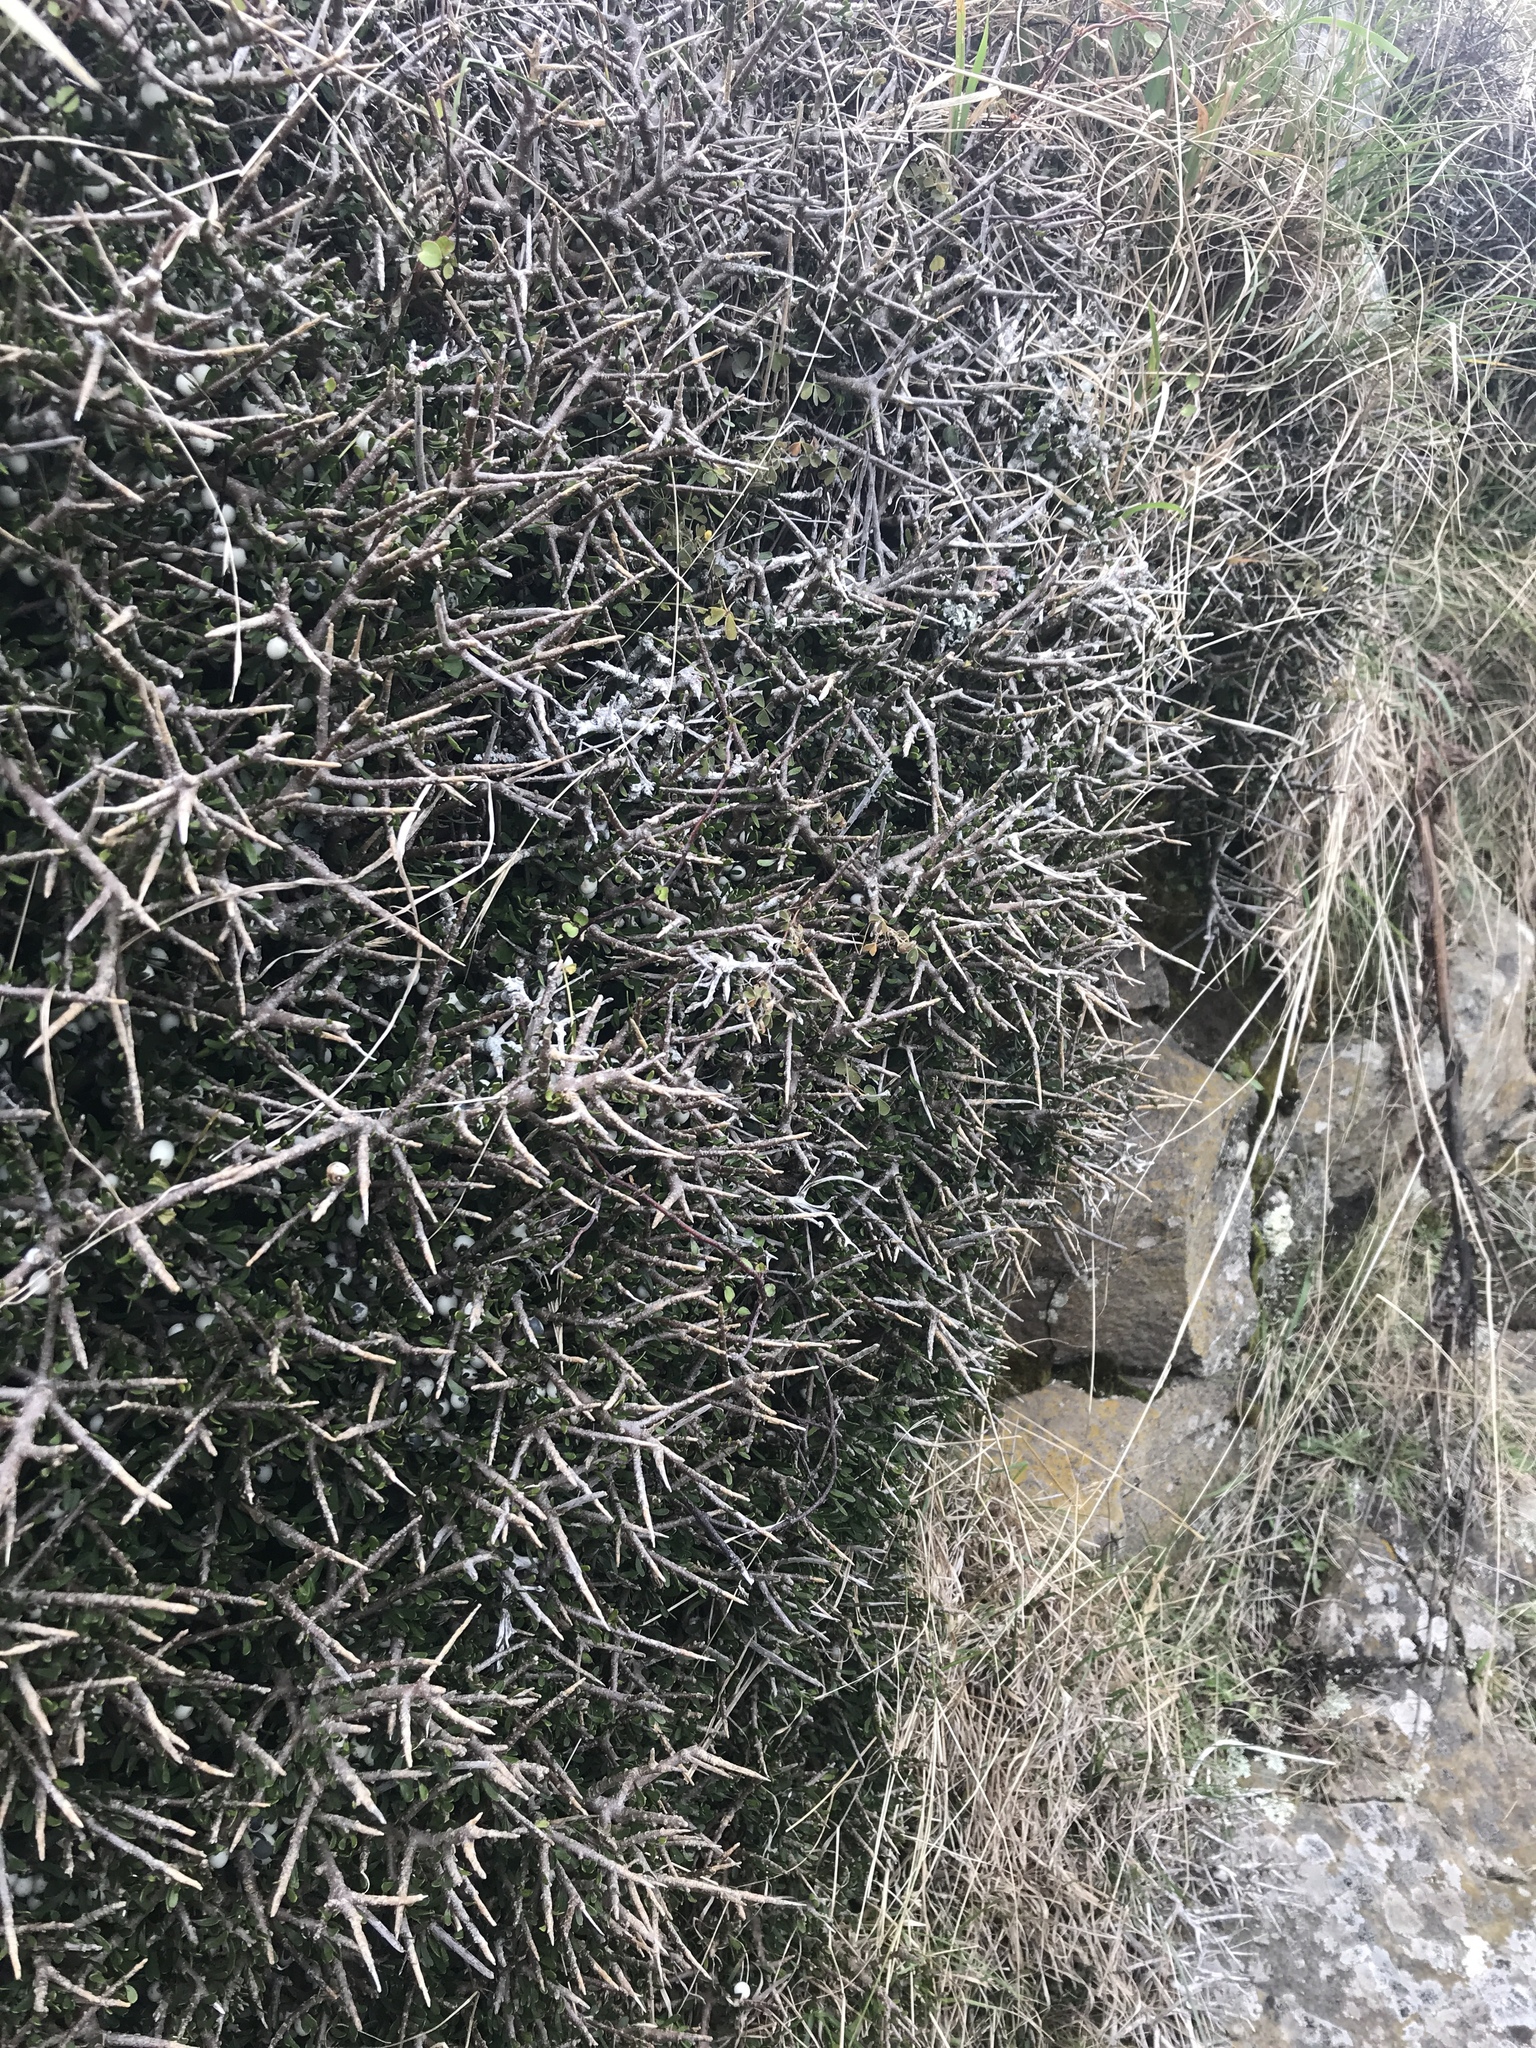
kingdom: Plantae
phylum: Tracheophyta
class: Magnoliopsida
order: Malpighiales
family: Violaceae
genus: Melicytus
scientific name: Melicytus alpinus
